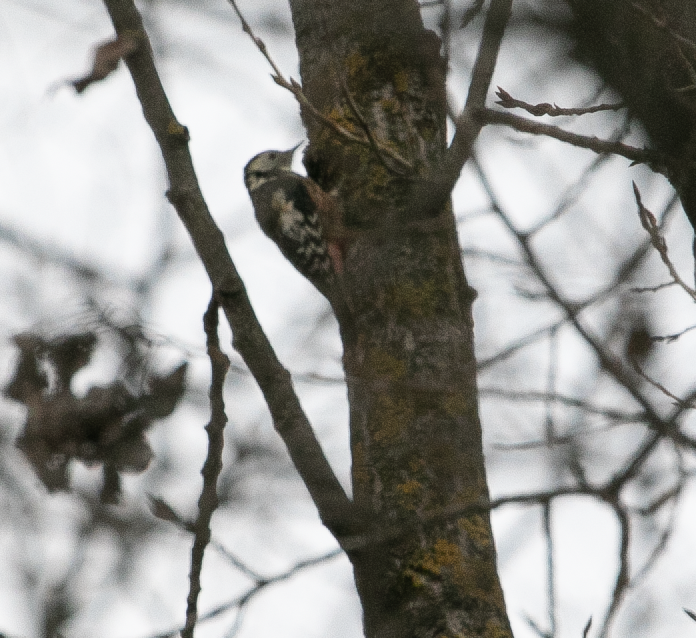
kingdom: Animalia
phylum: Chordata
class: Aves
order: Piciformes
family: Picidae
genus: Dendrocoptes
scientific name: Dendrocoptes medius
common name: Middle spotted woodpecker
